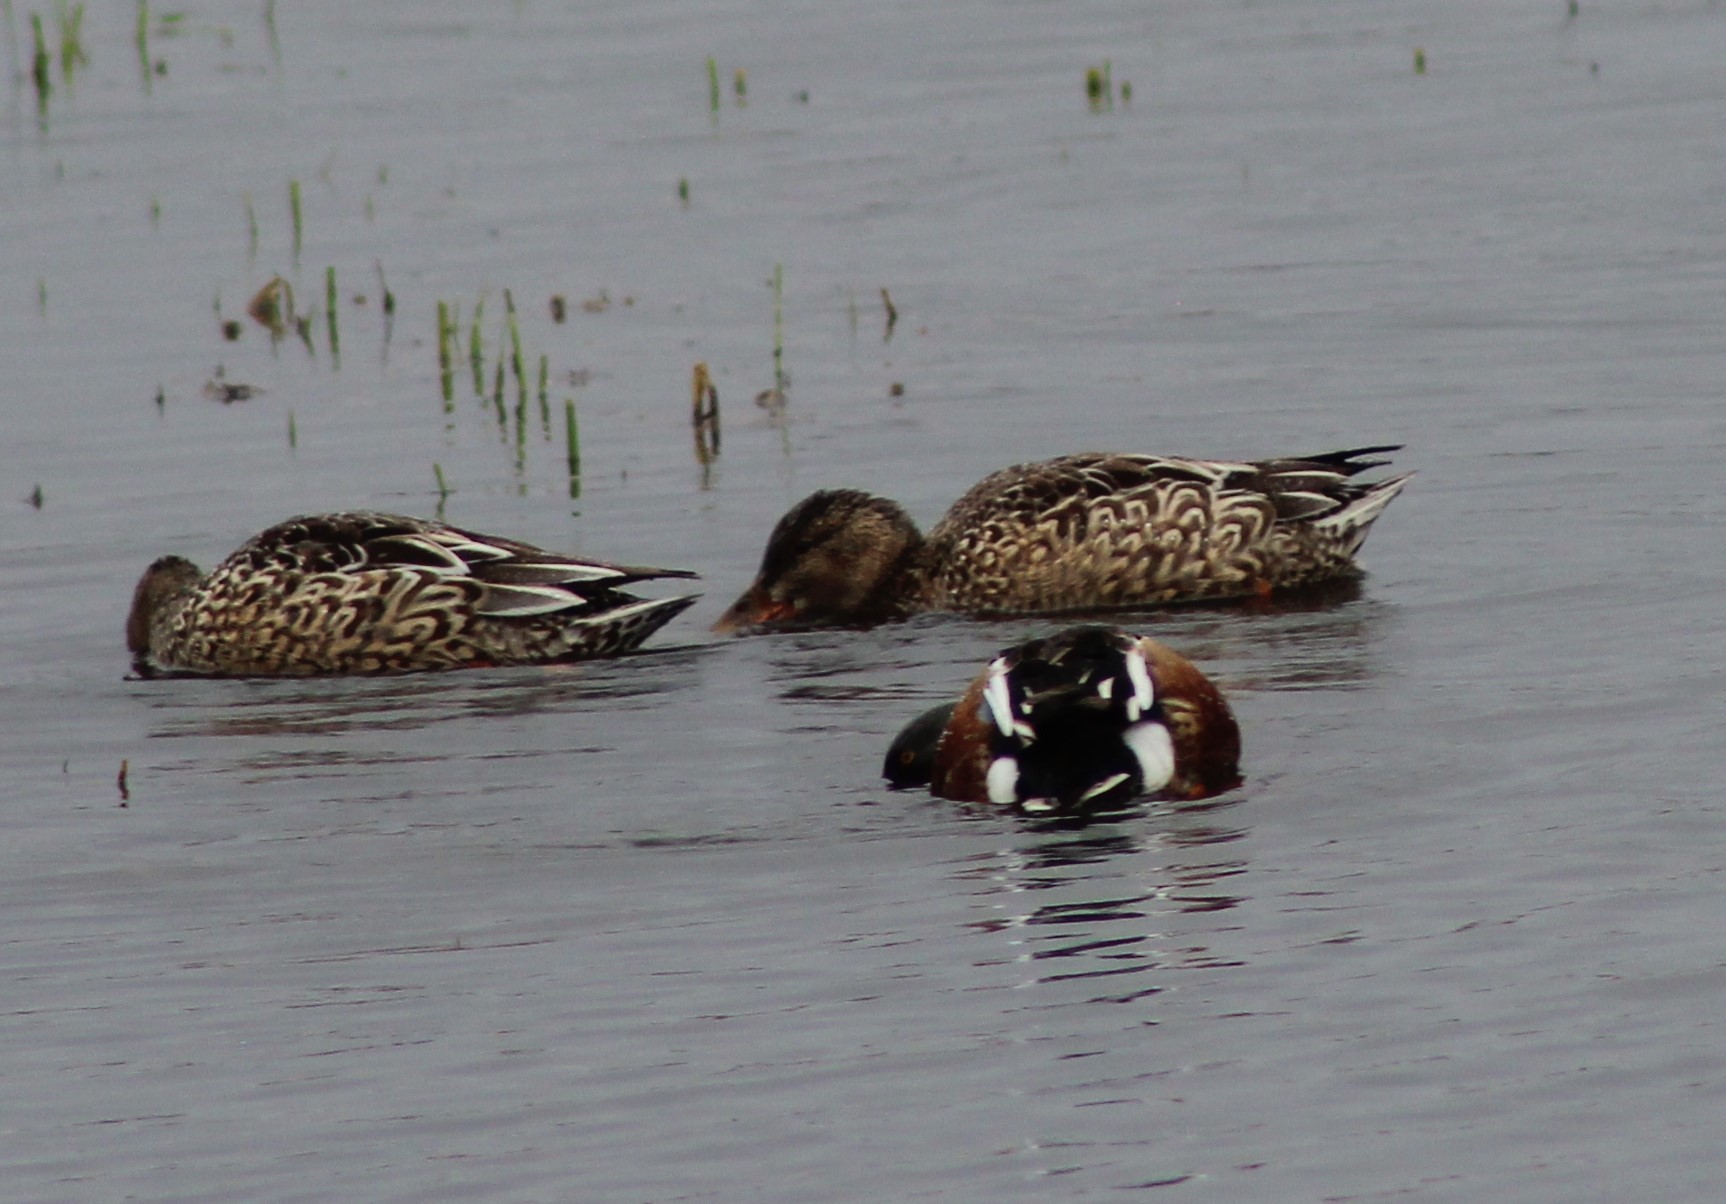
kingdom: Animalia
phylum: Chordata
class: Aves
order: Anseriformes
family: Anatidae
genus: Spatula
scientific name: Spatula clypeata
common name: Northern shoveler
